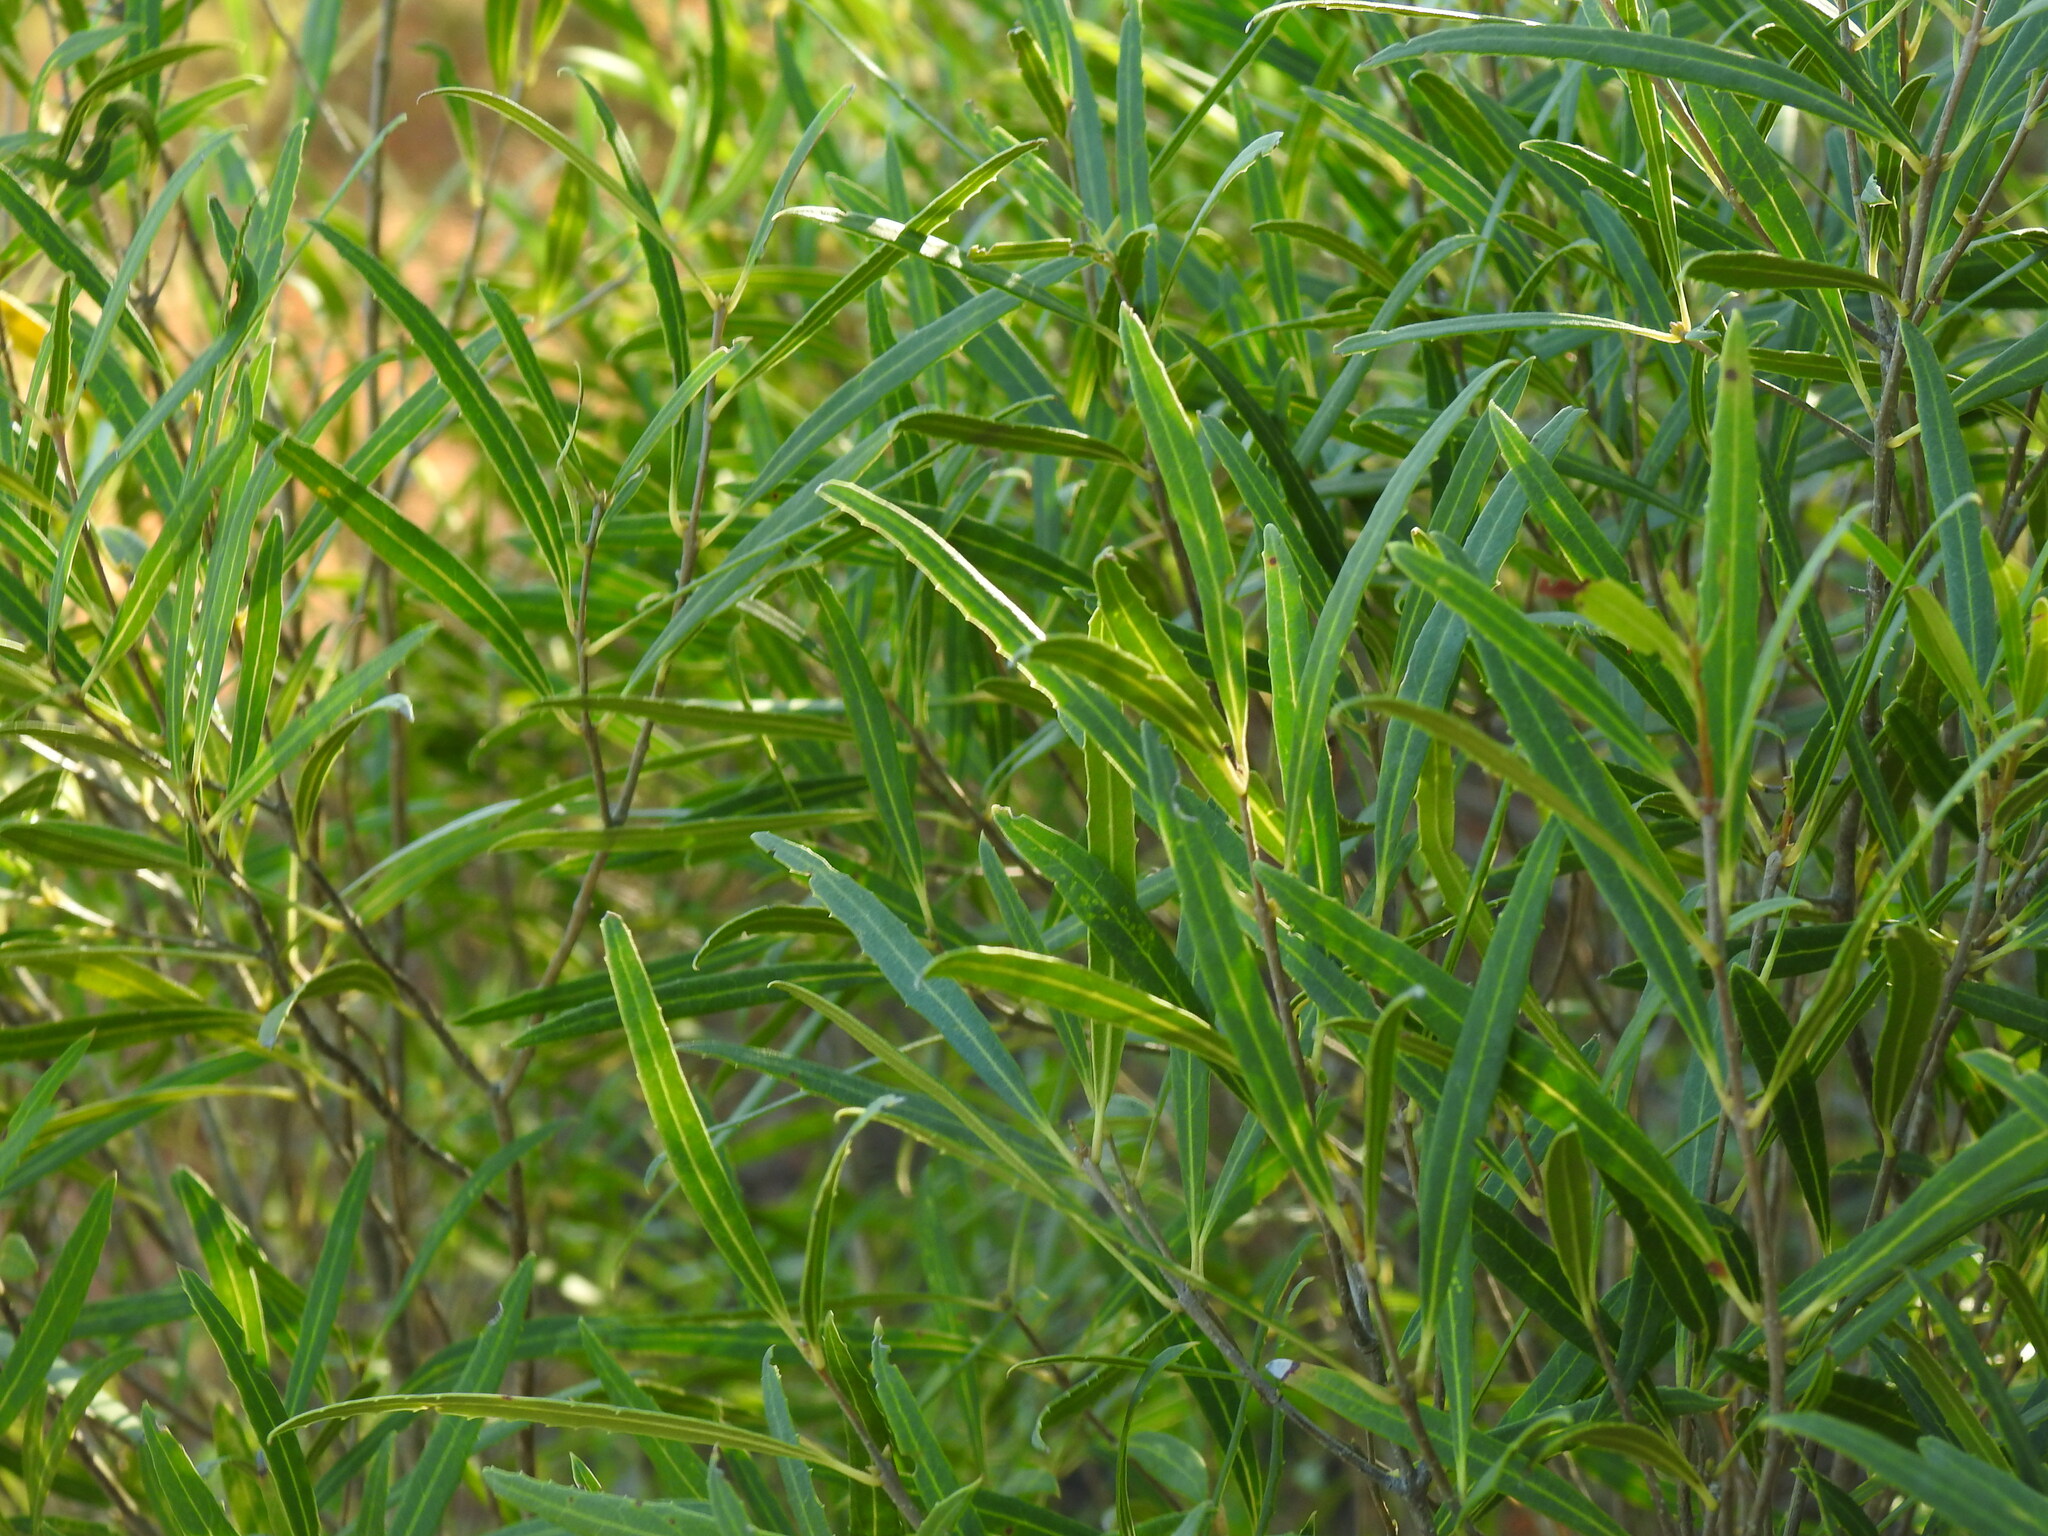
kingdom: Plantae
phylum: Tracheophyta
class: Magnoliopsida
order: Lamiales
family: Oleaceae
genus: Phillyrea
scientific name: Phillyrea angustifolia
